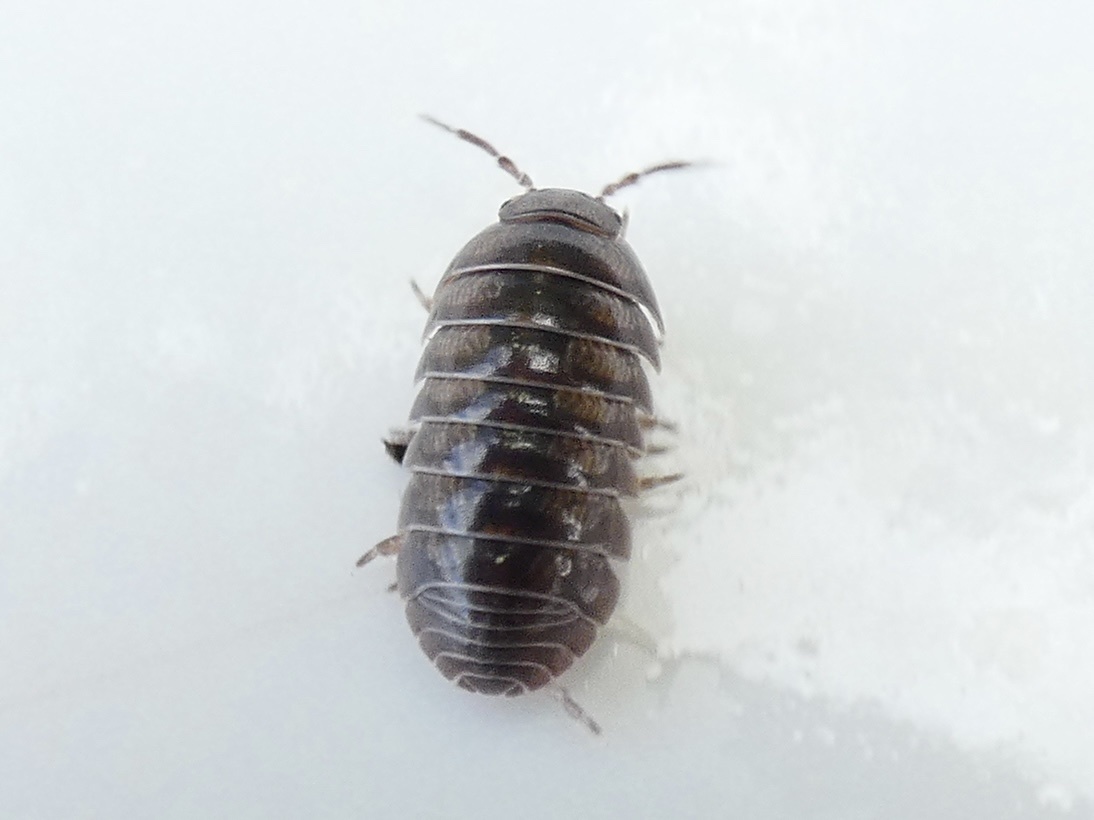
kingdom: Animalia
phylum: Arthropoda
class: Malacostraca
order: Isopoda
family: Armadillidiidae
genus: Armadillidium
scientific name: Armadillidium vulgare
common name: Common pill woodlouse
